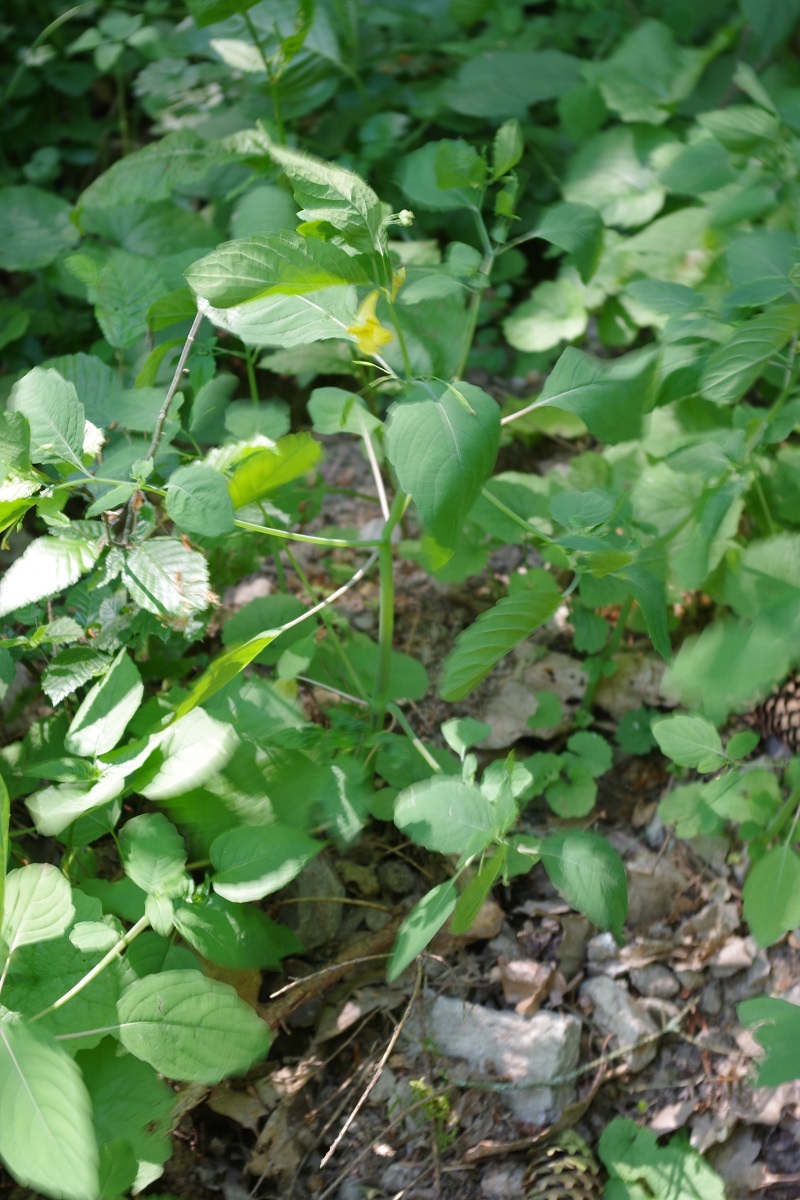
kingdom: Plantae
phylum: Tracheophyta
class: Magnoliopsida
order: Ericales
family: Balsaminaceae
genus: Impatiens
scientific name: Impatiens noli-tangere
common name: Touch-me-not balsam
